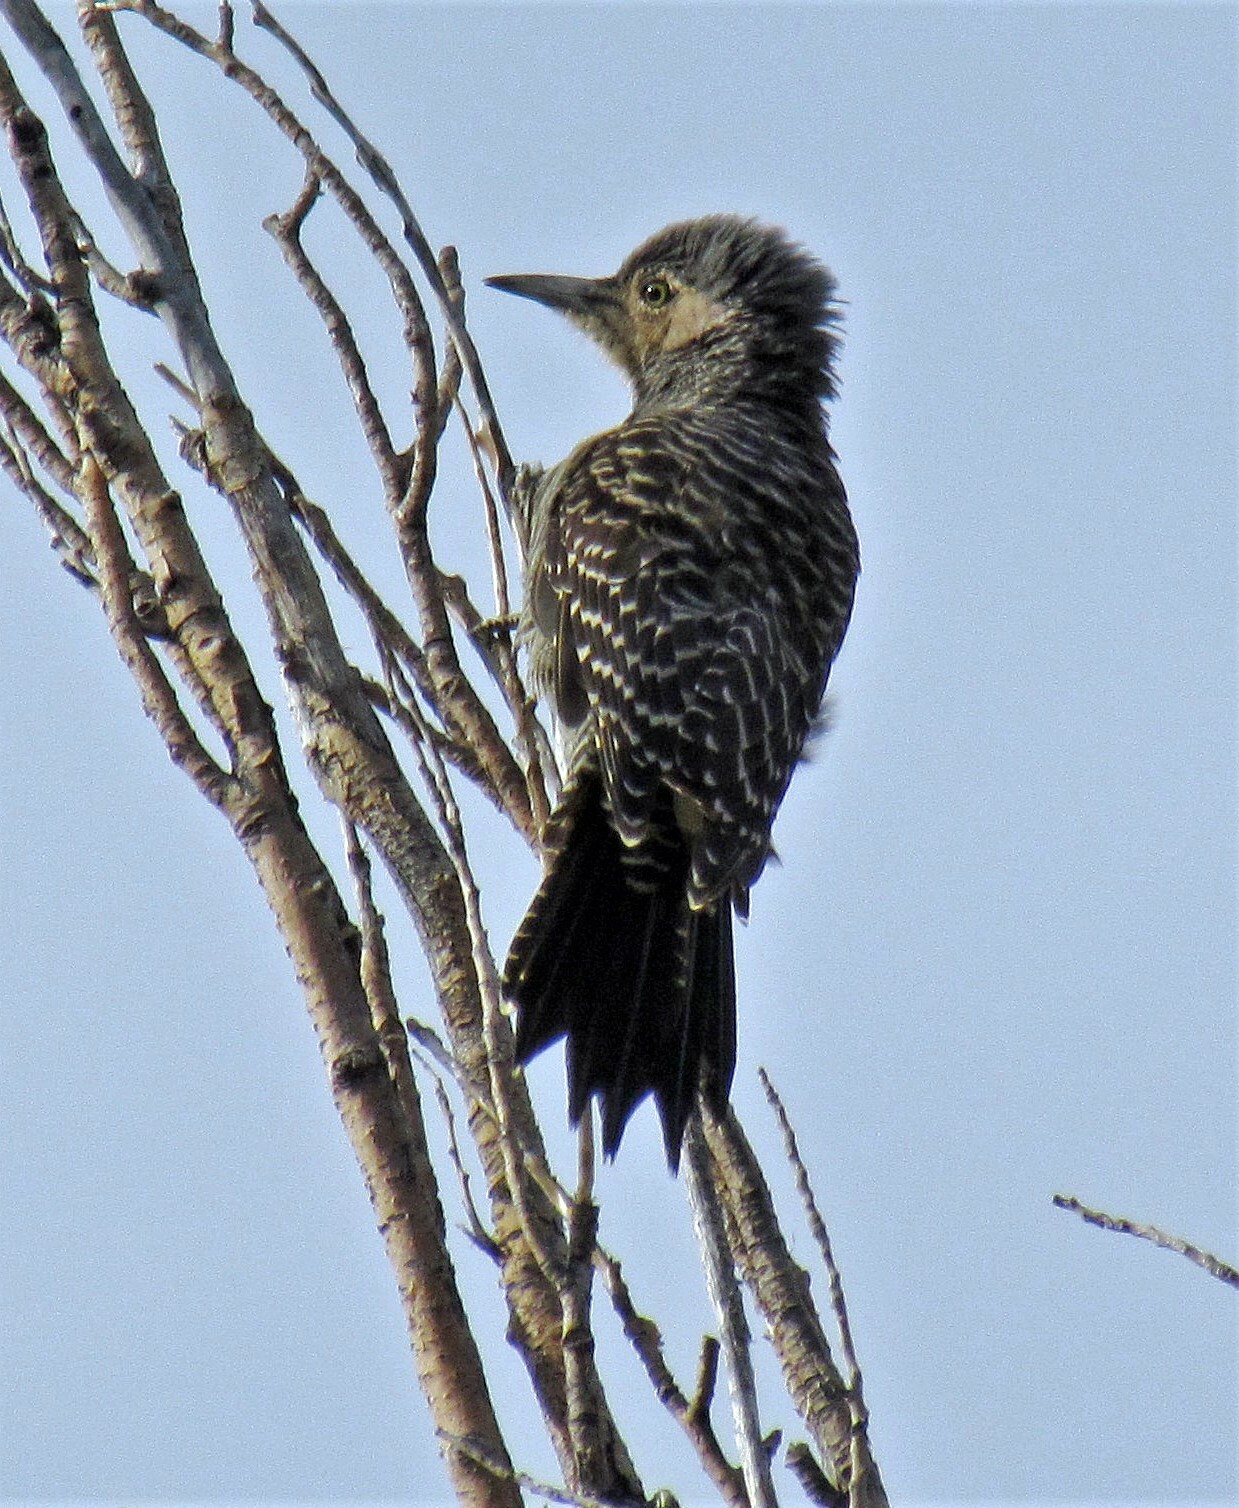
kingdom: Animalia
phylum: Chordata
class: Aves
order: Piciformes
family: Picidae
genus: Colaptes
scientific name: Colaptes pitius
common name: Chilean flicker
